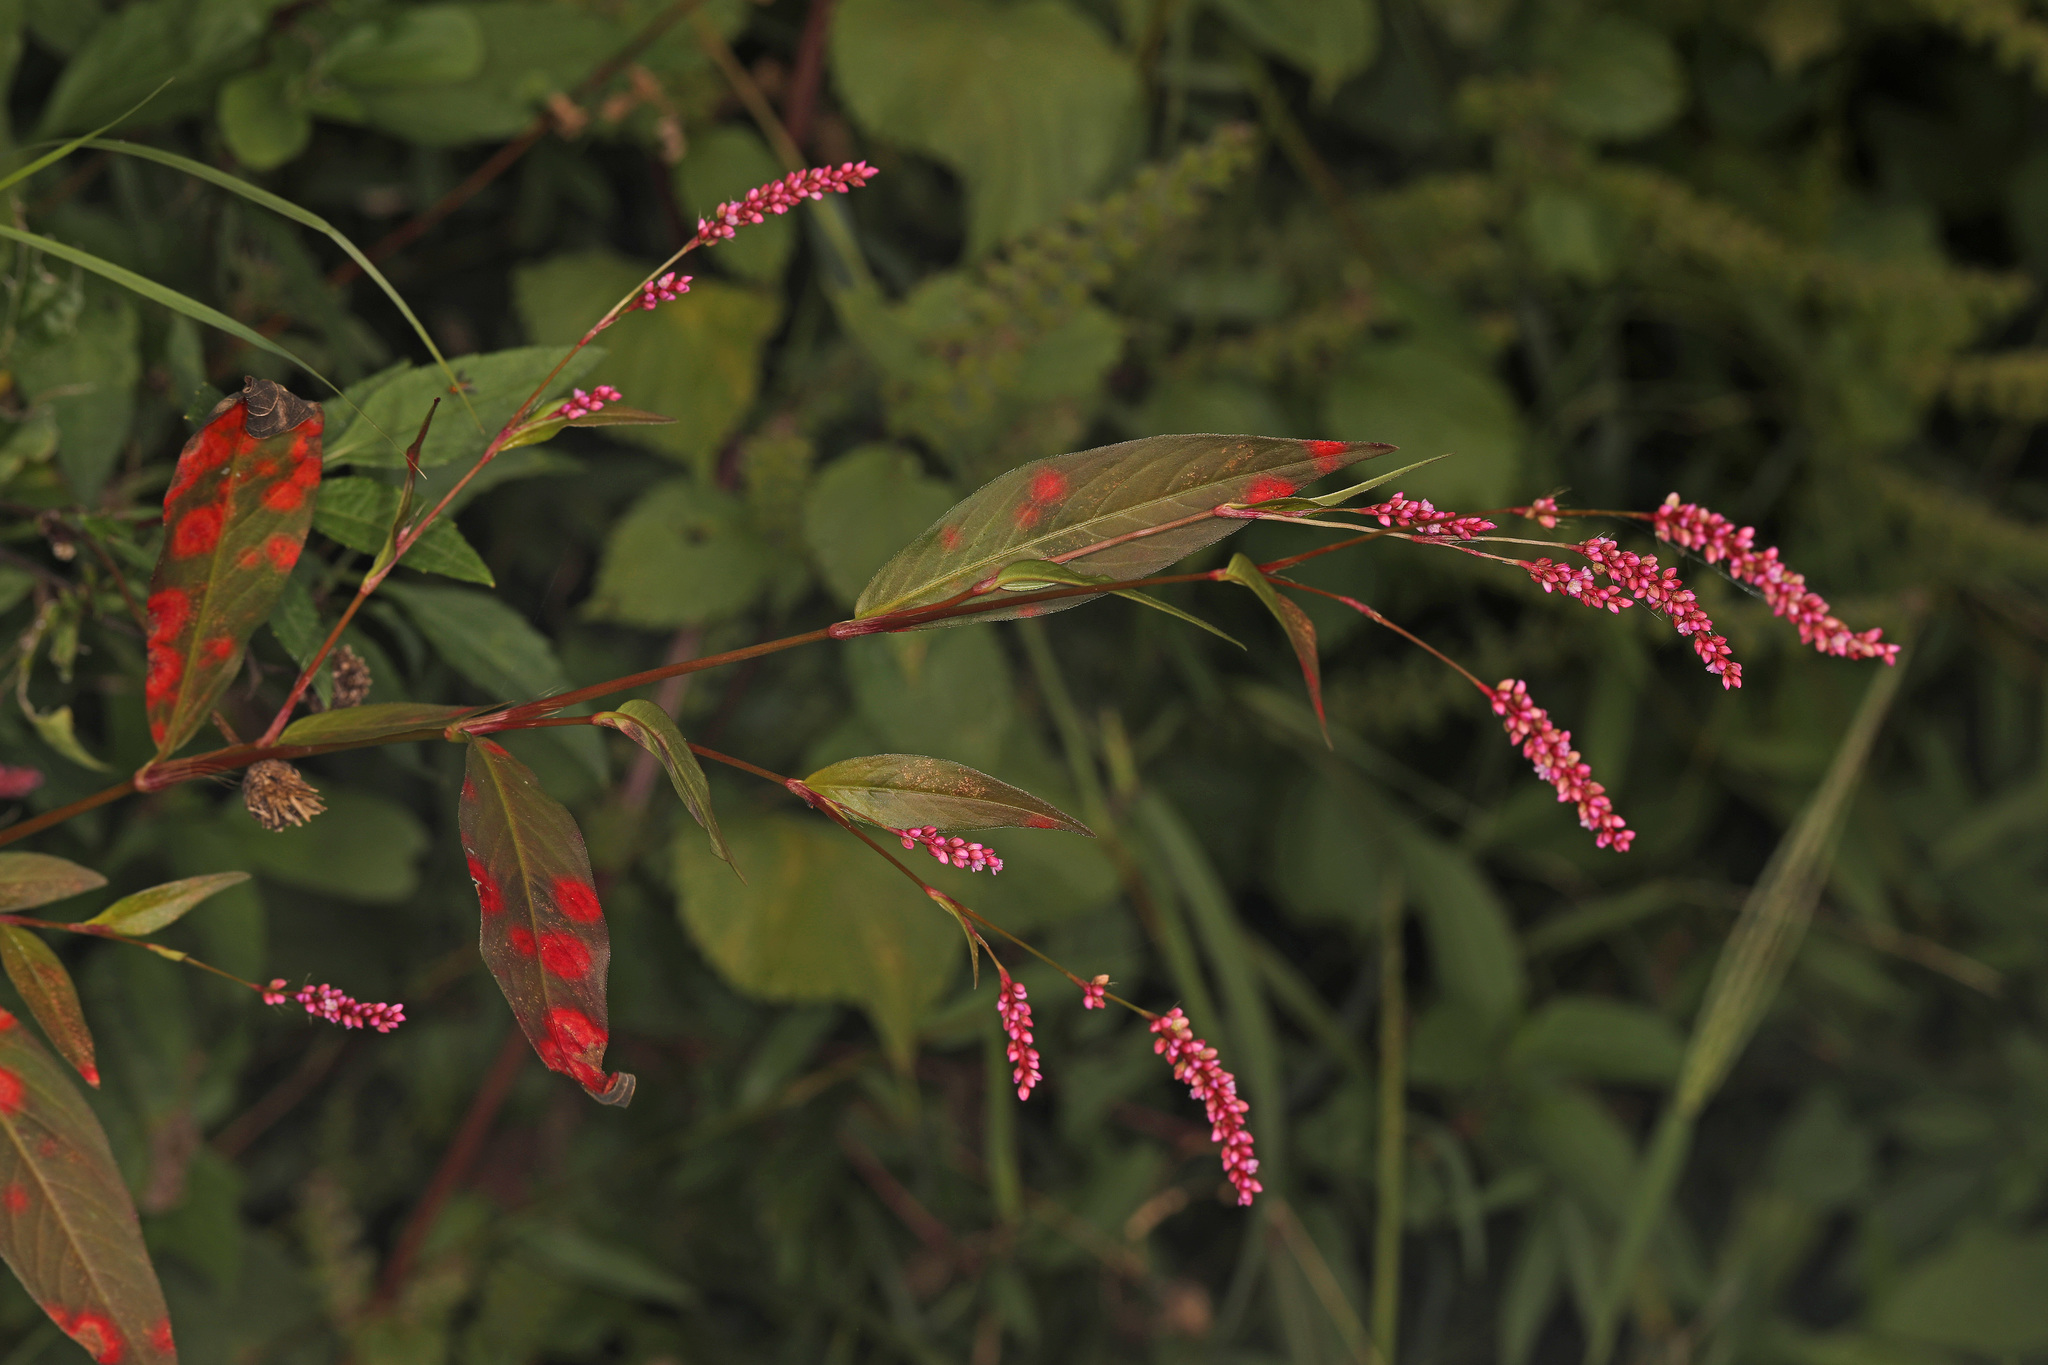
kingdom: Plantae
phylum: Tracheophyta
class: Magnoliopsida
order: Caryophyllales
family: Polygonaceae
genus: Persicaria
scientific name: Persicaria longiseta
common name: Bristly lady's-thumb
